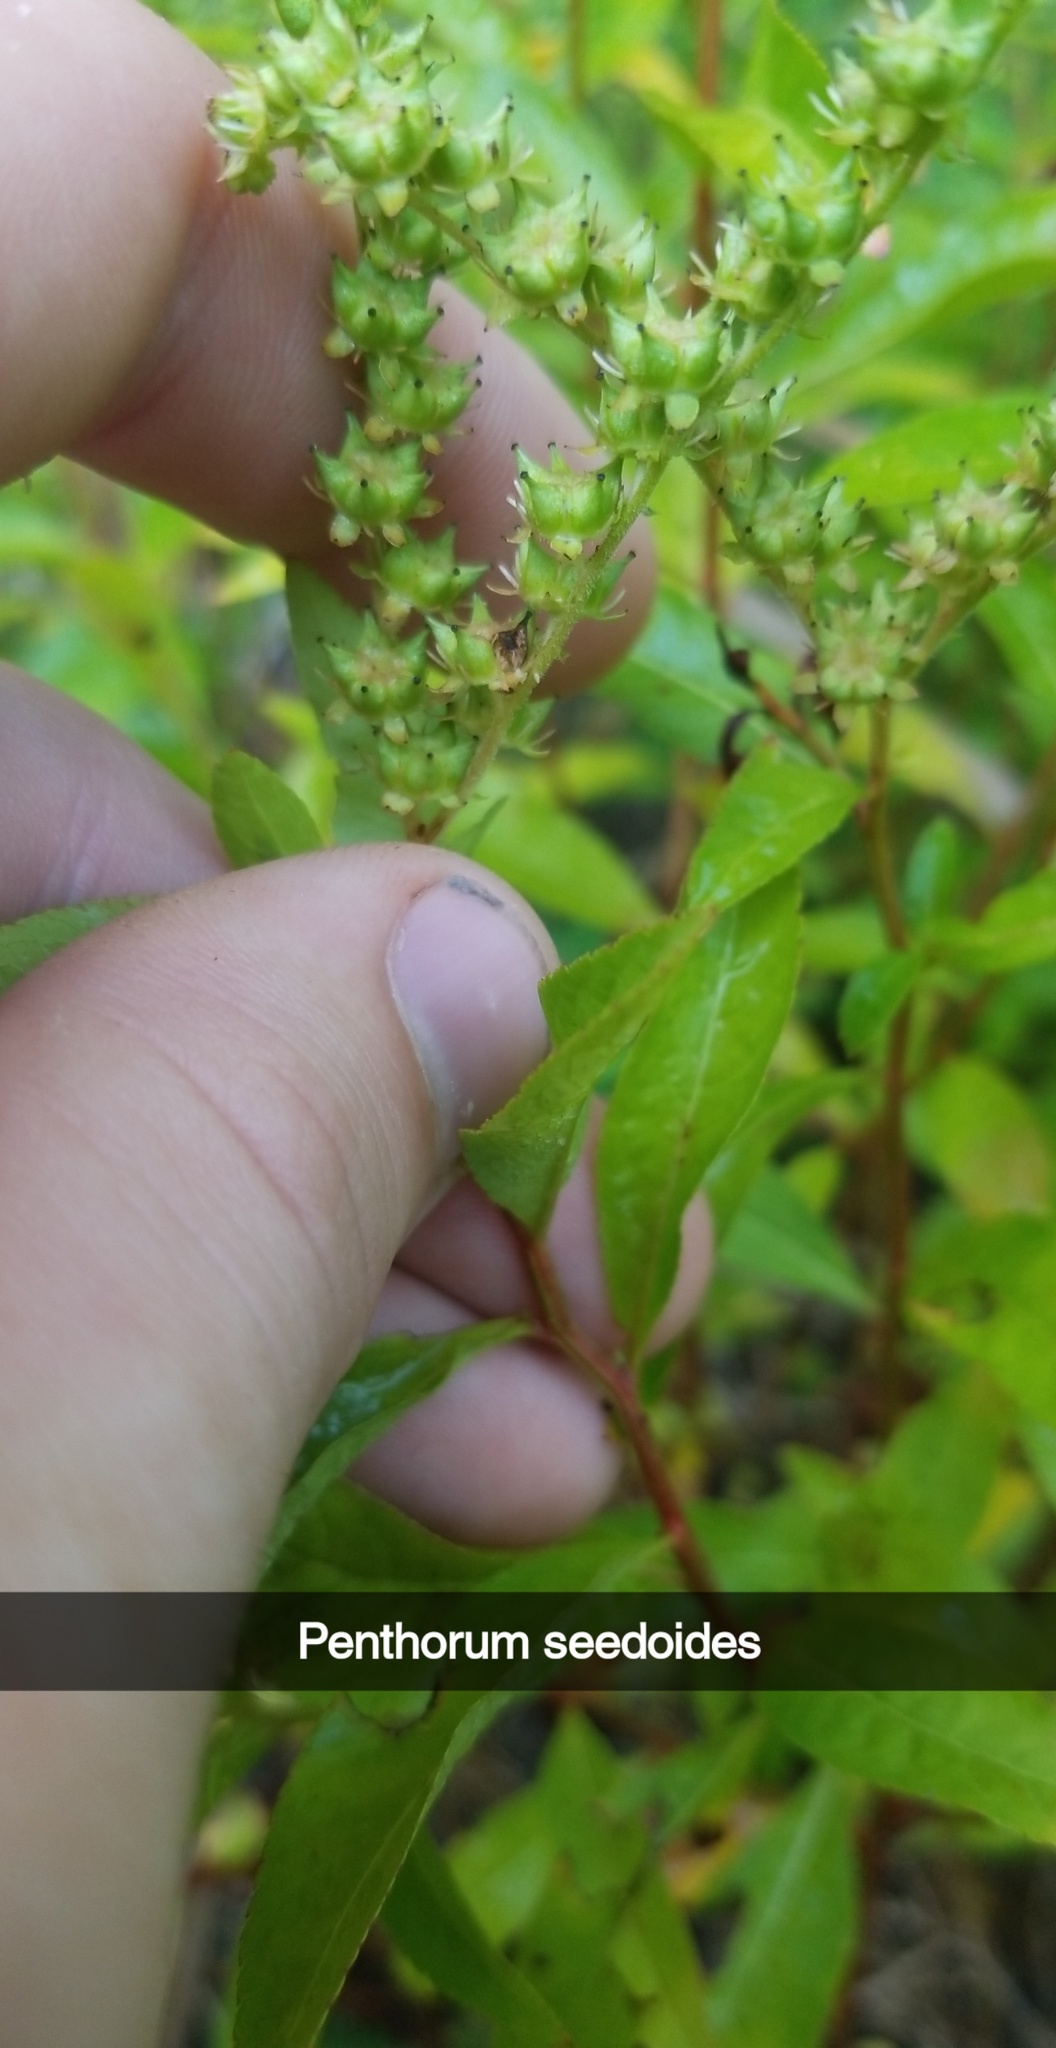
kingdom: Plantae
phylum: Tracheophyta
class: Magnoliopsida
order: Saxifragales
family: Penthoraceae
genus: Penthorum
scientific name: Penthorum sedoides
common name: Ditch stonecrop
